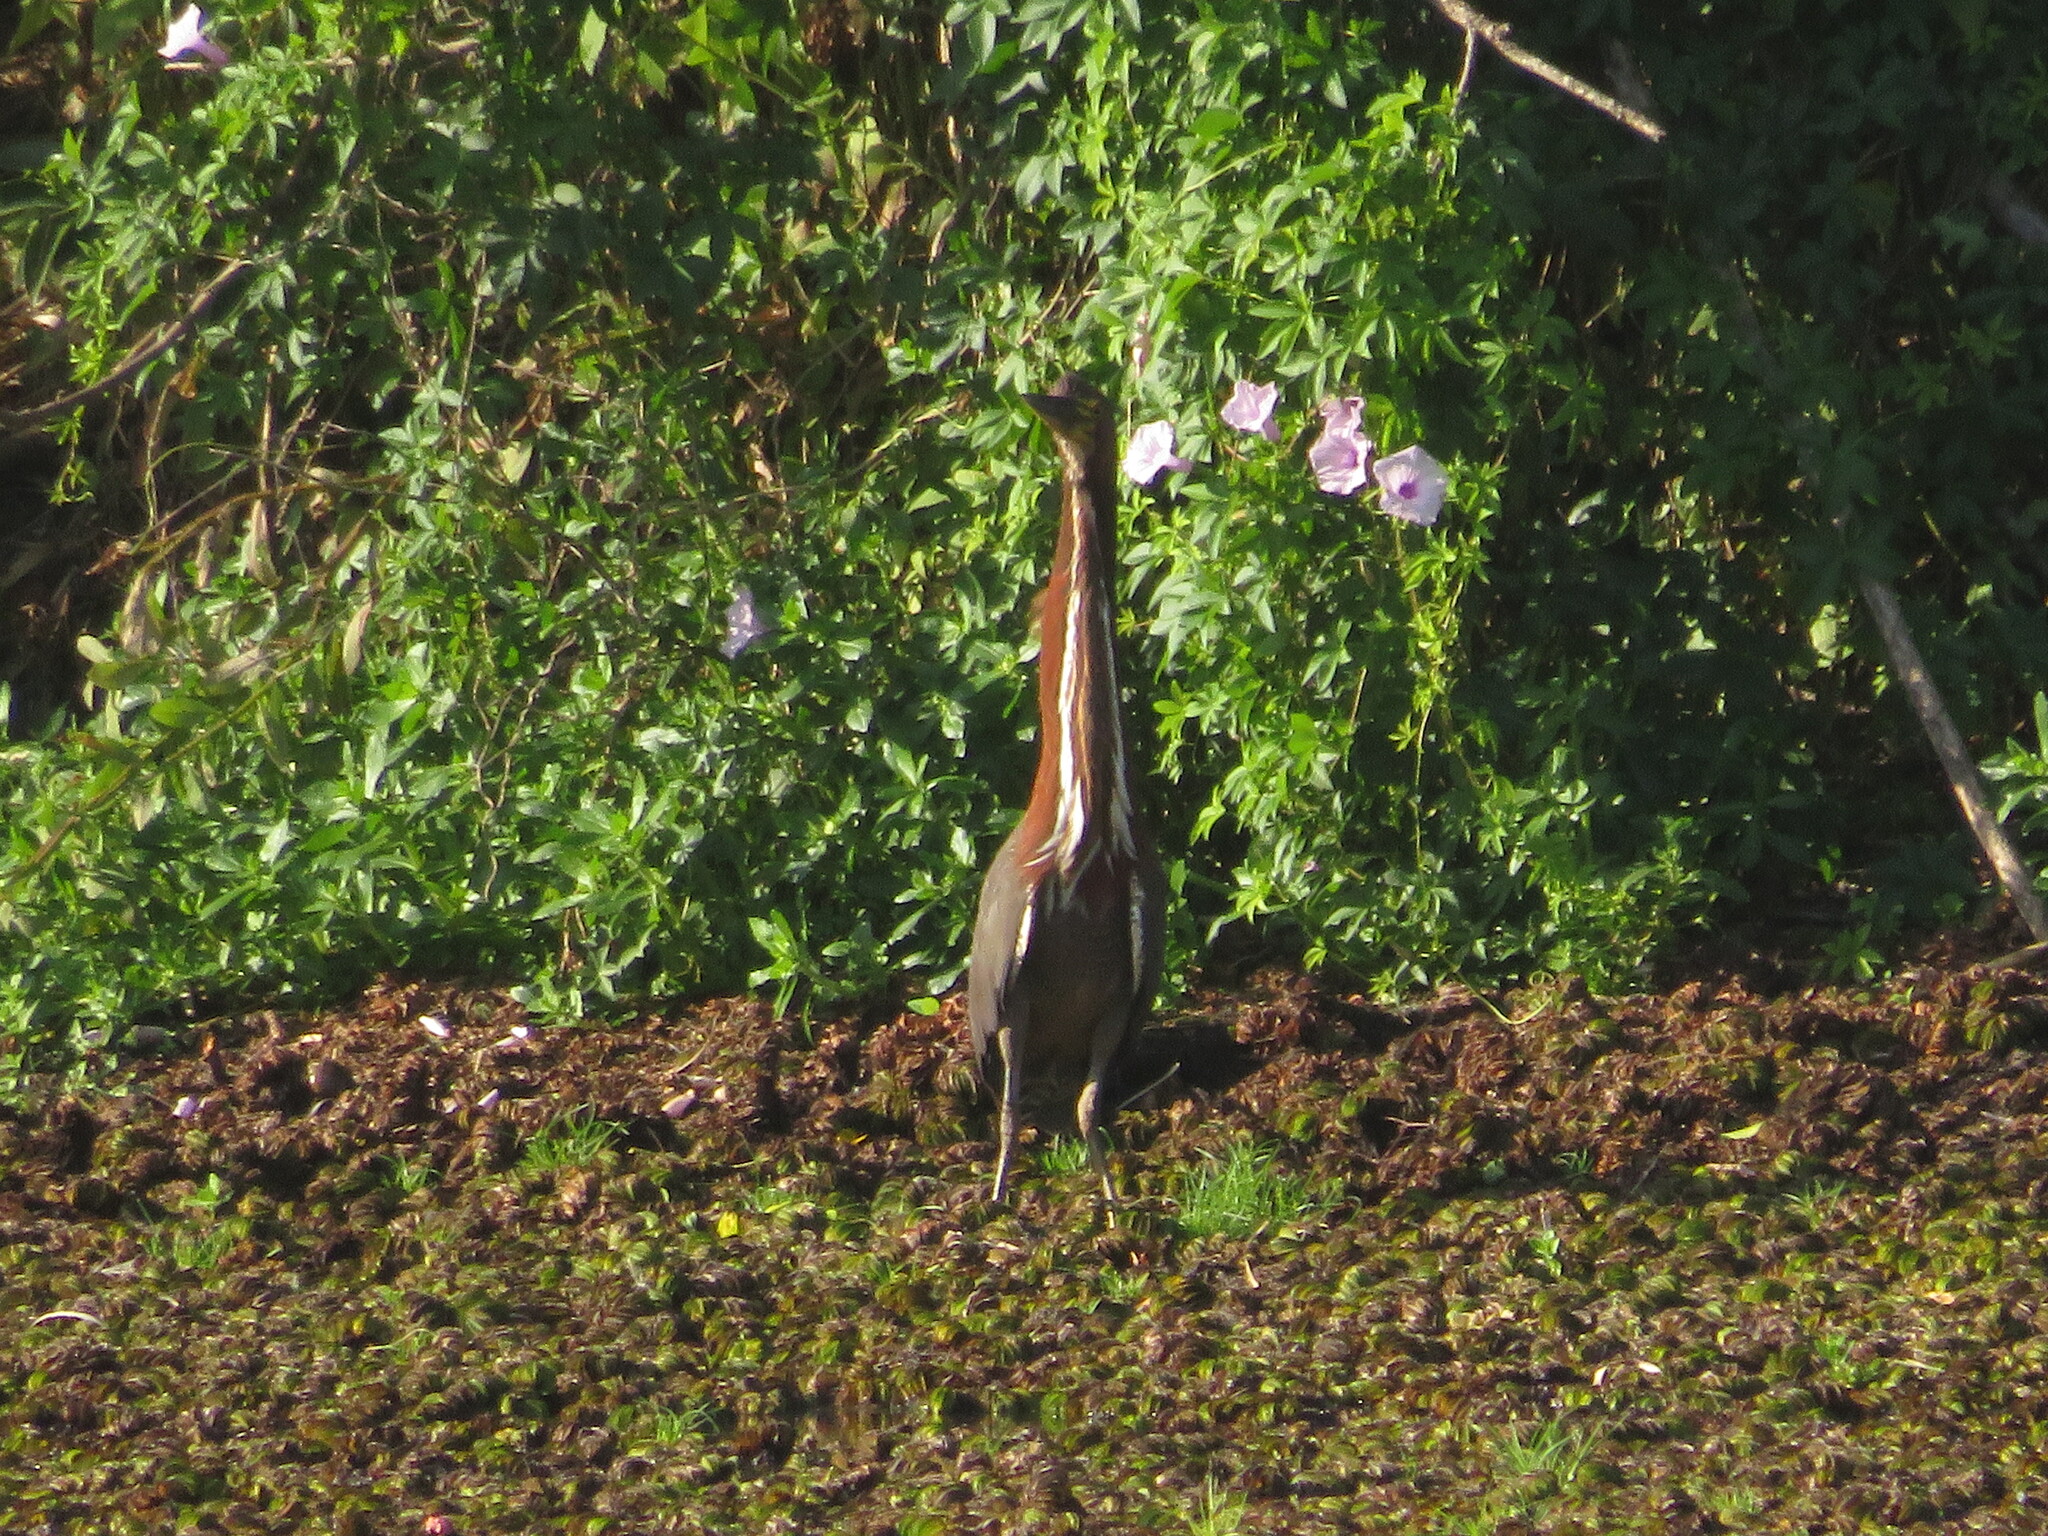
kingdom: Animalia
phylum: Chordata
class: Aves
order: Pelecaniformes
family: Ardeidae
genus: Tigrisoma
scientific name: Tigrisoma lineatum
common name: Rufescent tiger-heron
